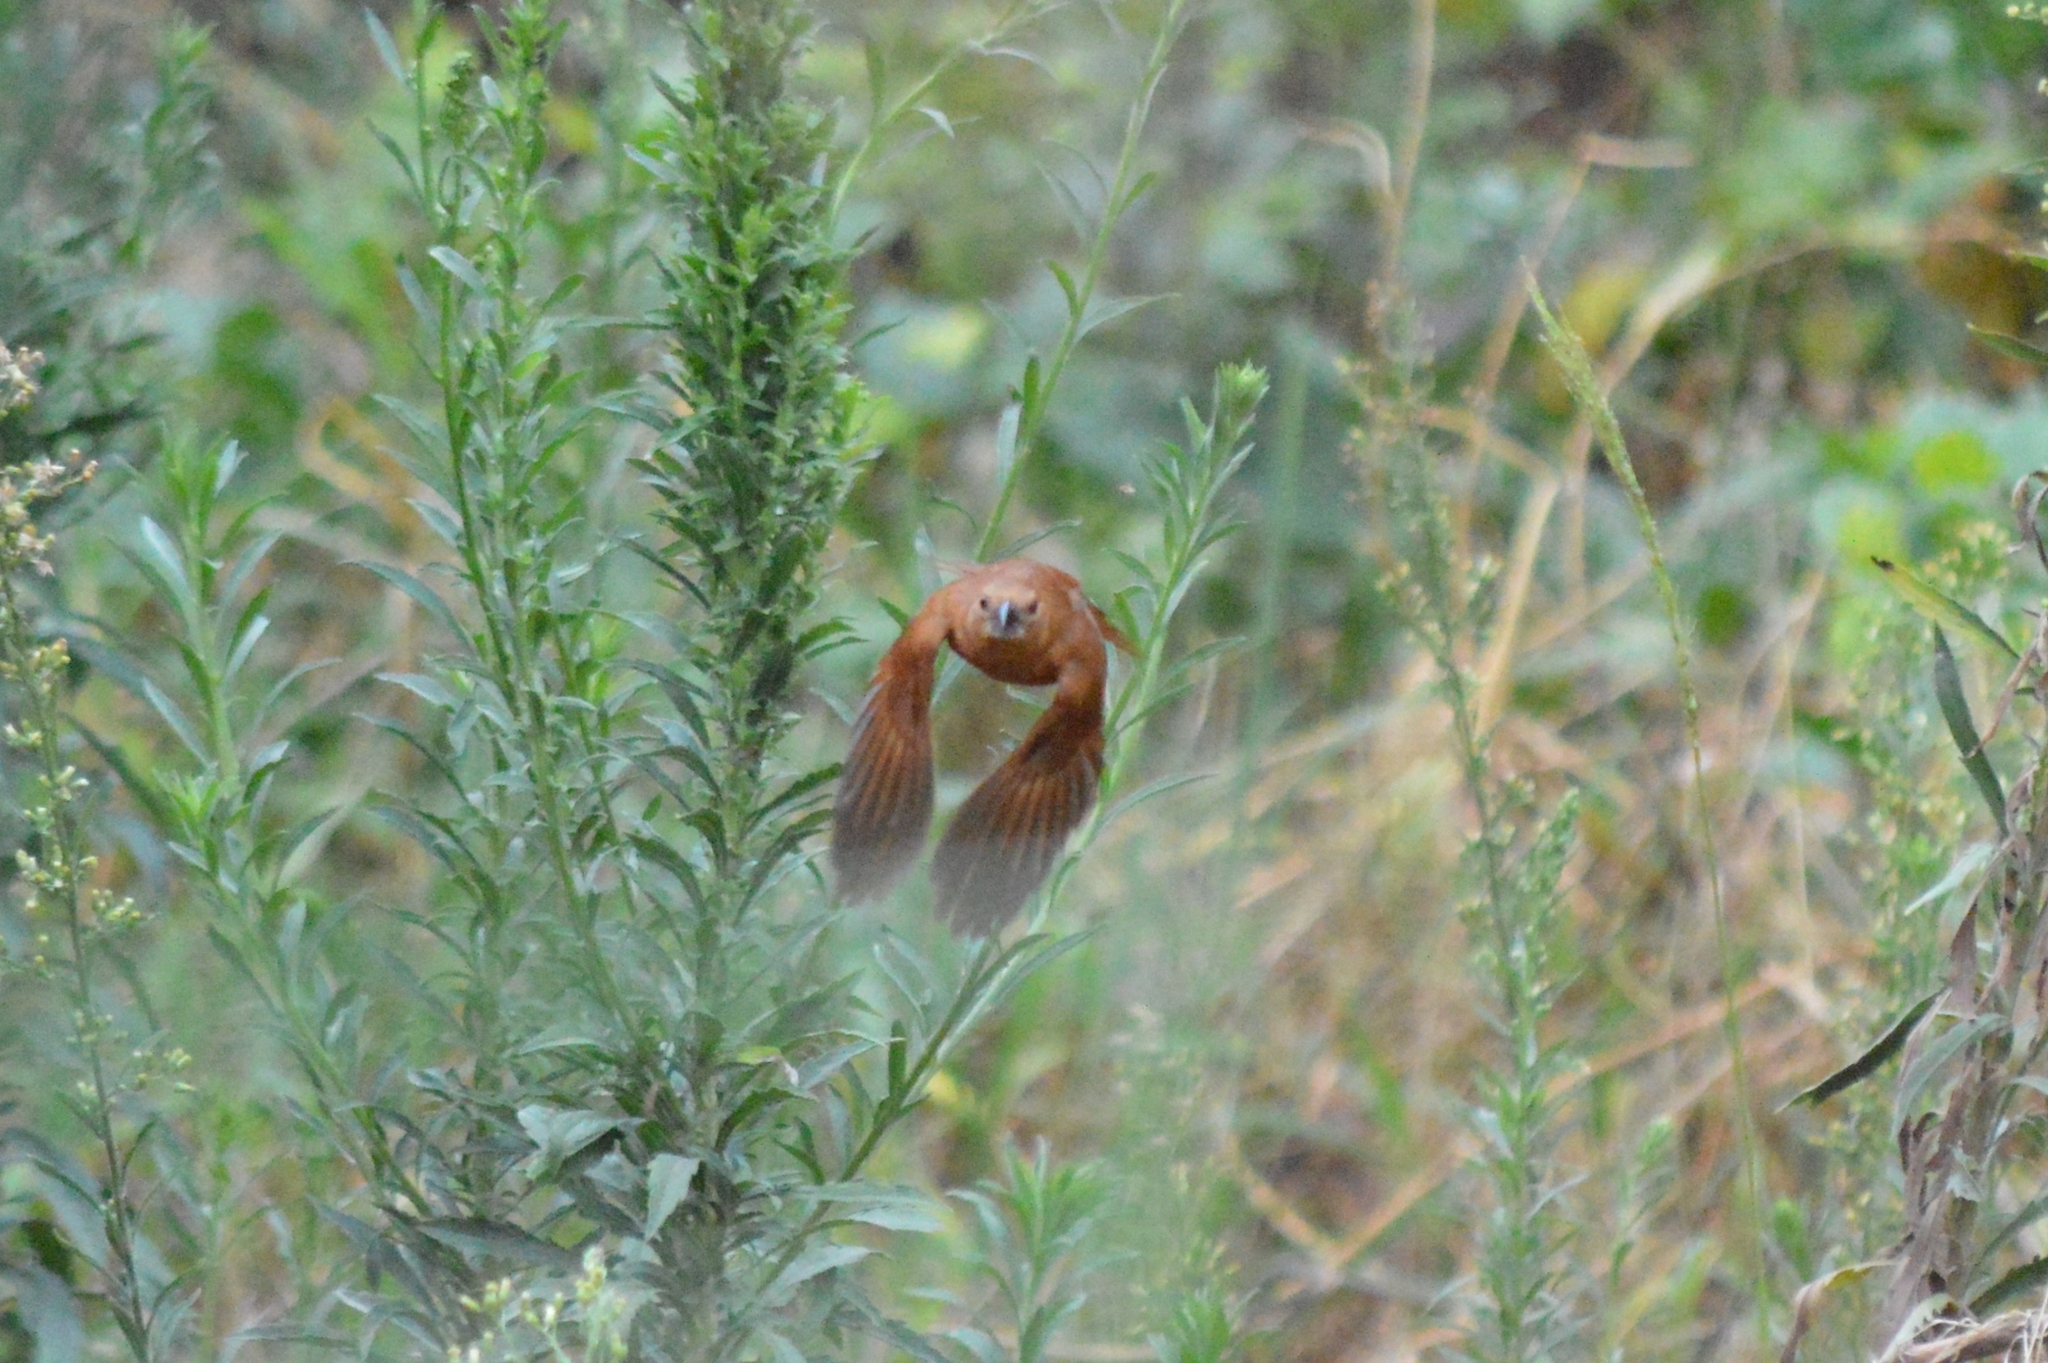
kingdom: Animalia
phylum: Chordata
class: Aves
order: Passeriformes
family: Thraupidae
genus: Tachyphonus
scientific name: Tachyphonus rufus
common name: White-lined tanager
